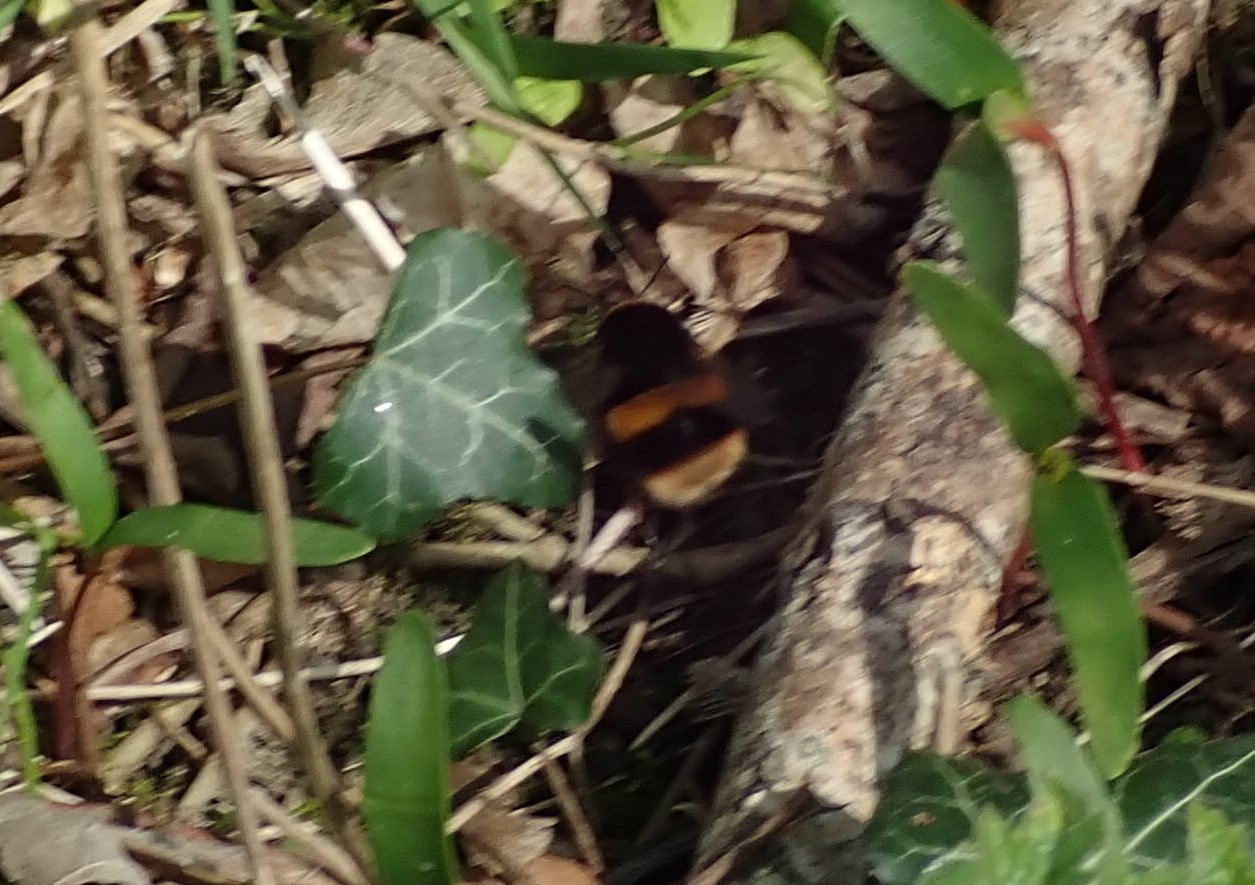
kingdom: Animalia
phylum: Arthropoda
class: Insecta
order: Hymenoptera
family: Apidae
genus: Bombus
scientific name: Bombus terrestris
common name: Buff-tailed bumblebee
